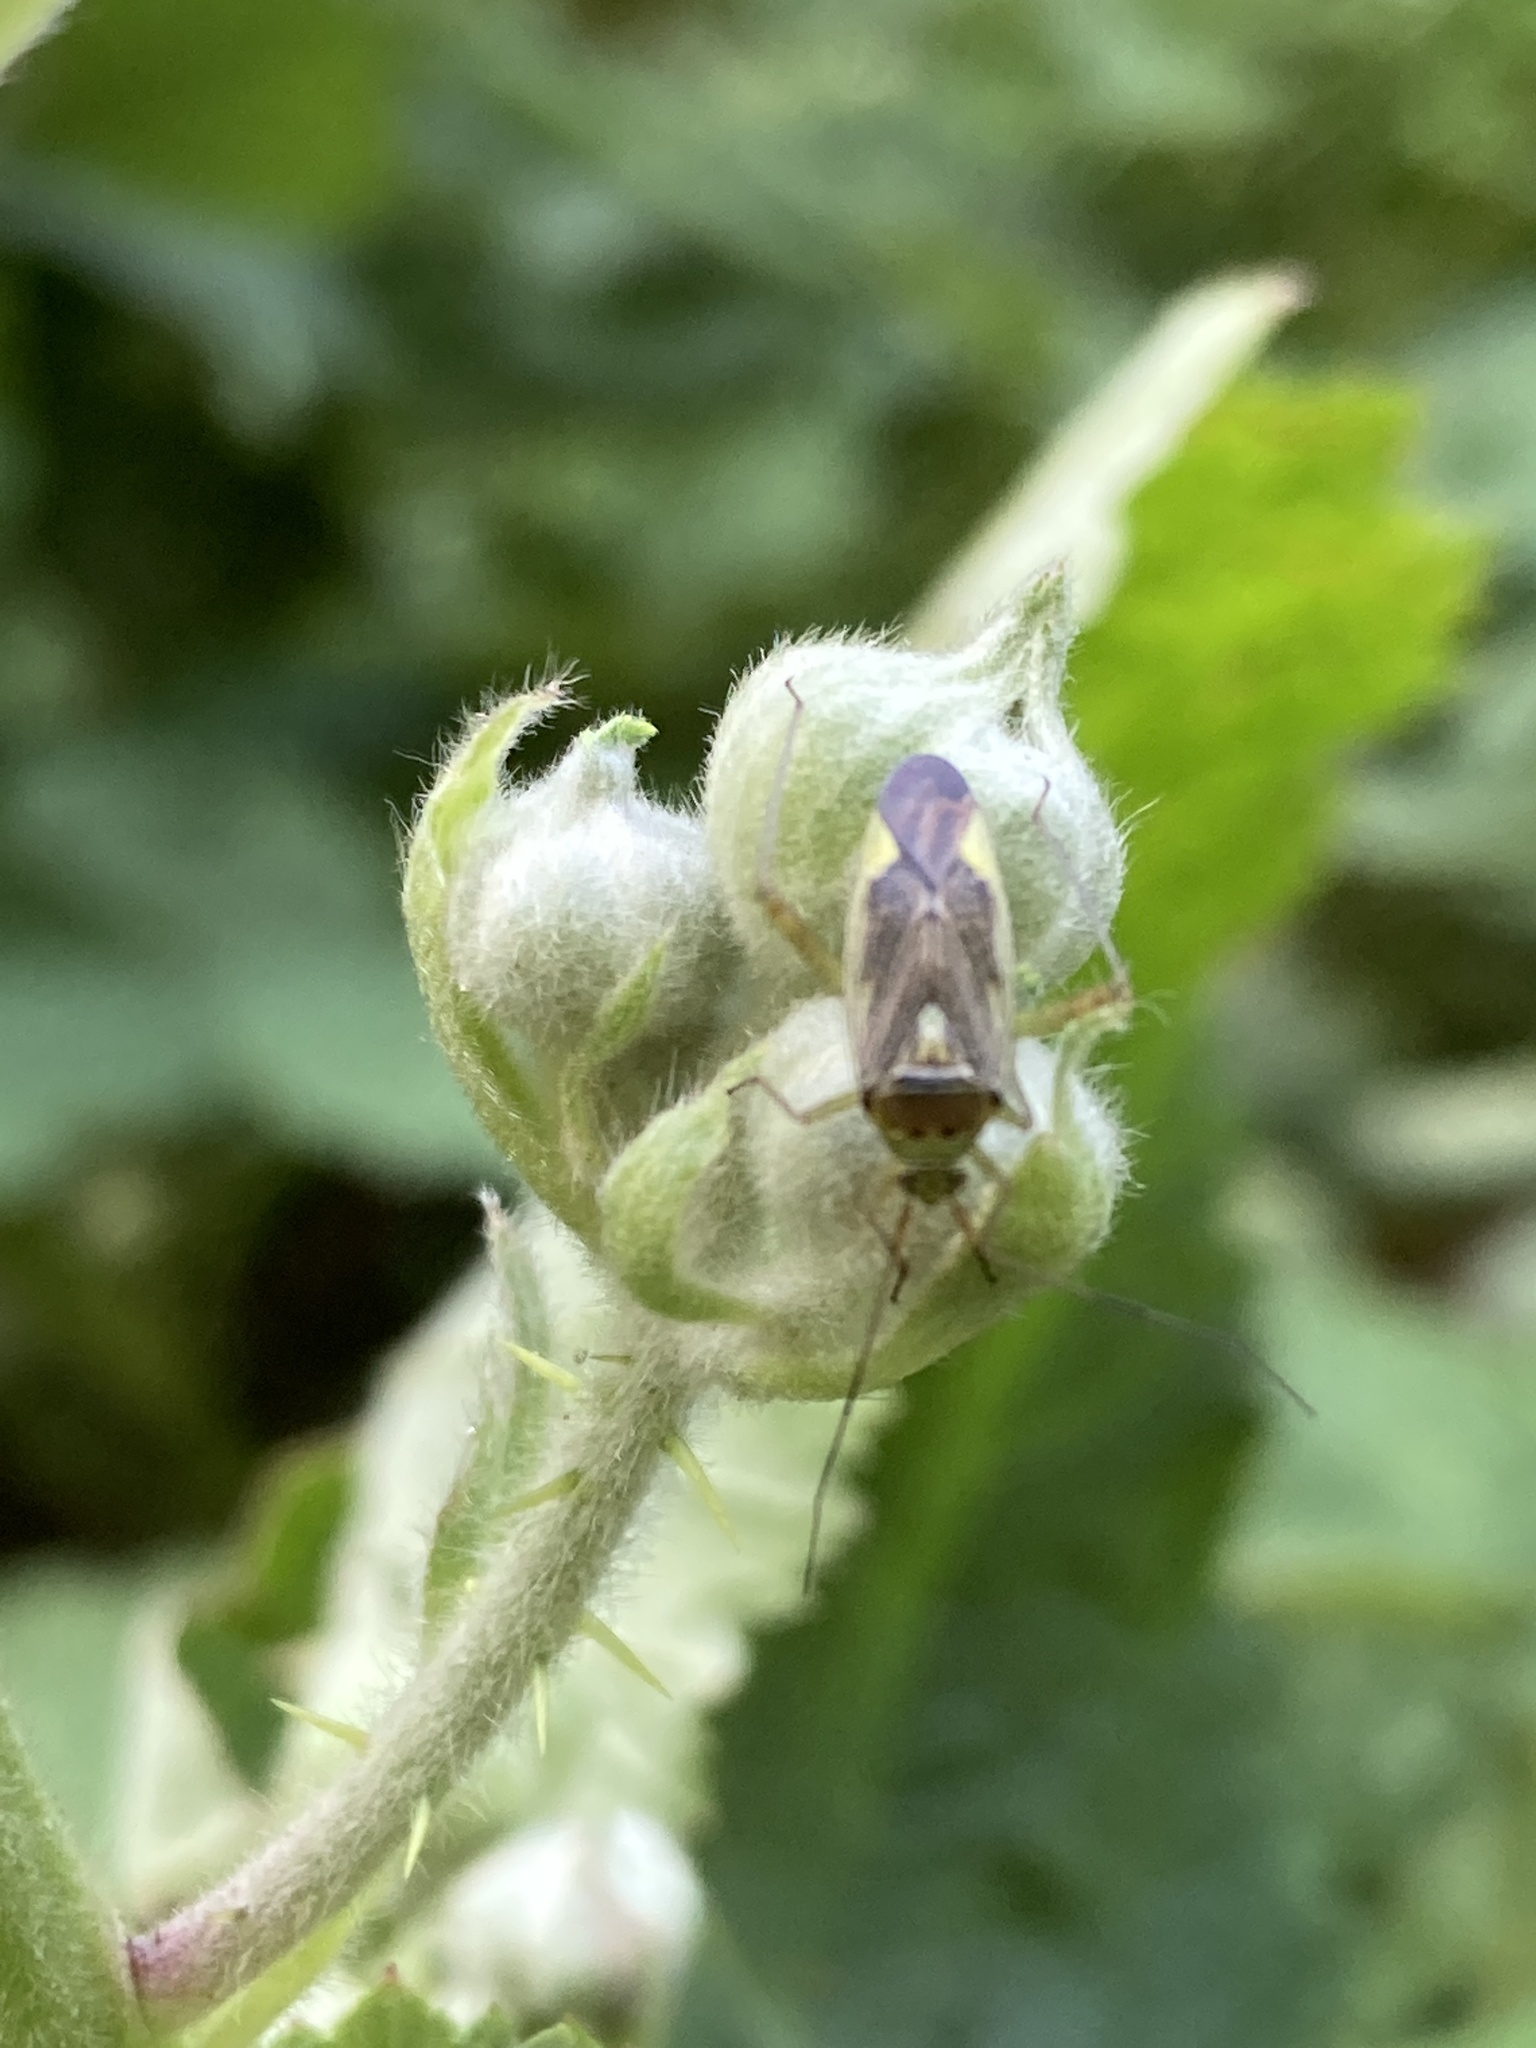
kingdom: Animalia
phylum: Arthropoda
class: Insecta
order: Hemiptera
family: Miridae
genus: Closterotomus
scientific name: Closterotomus trivialis
